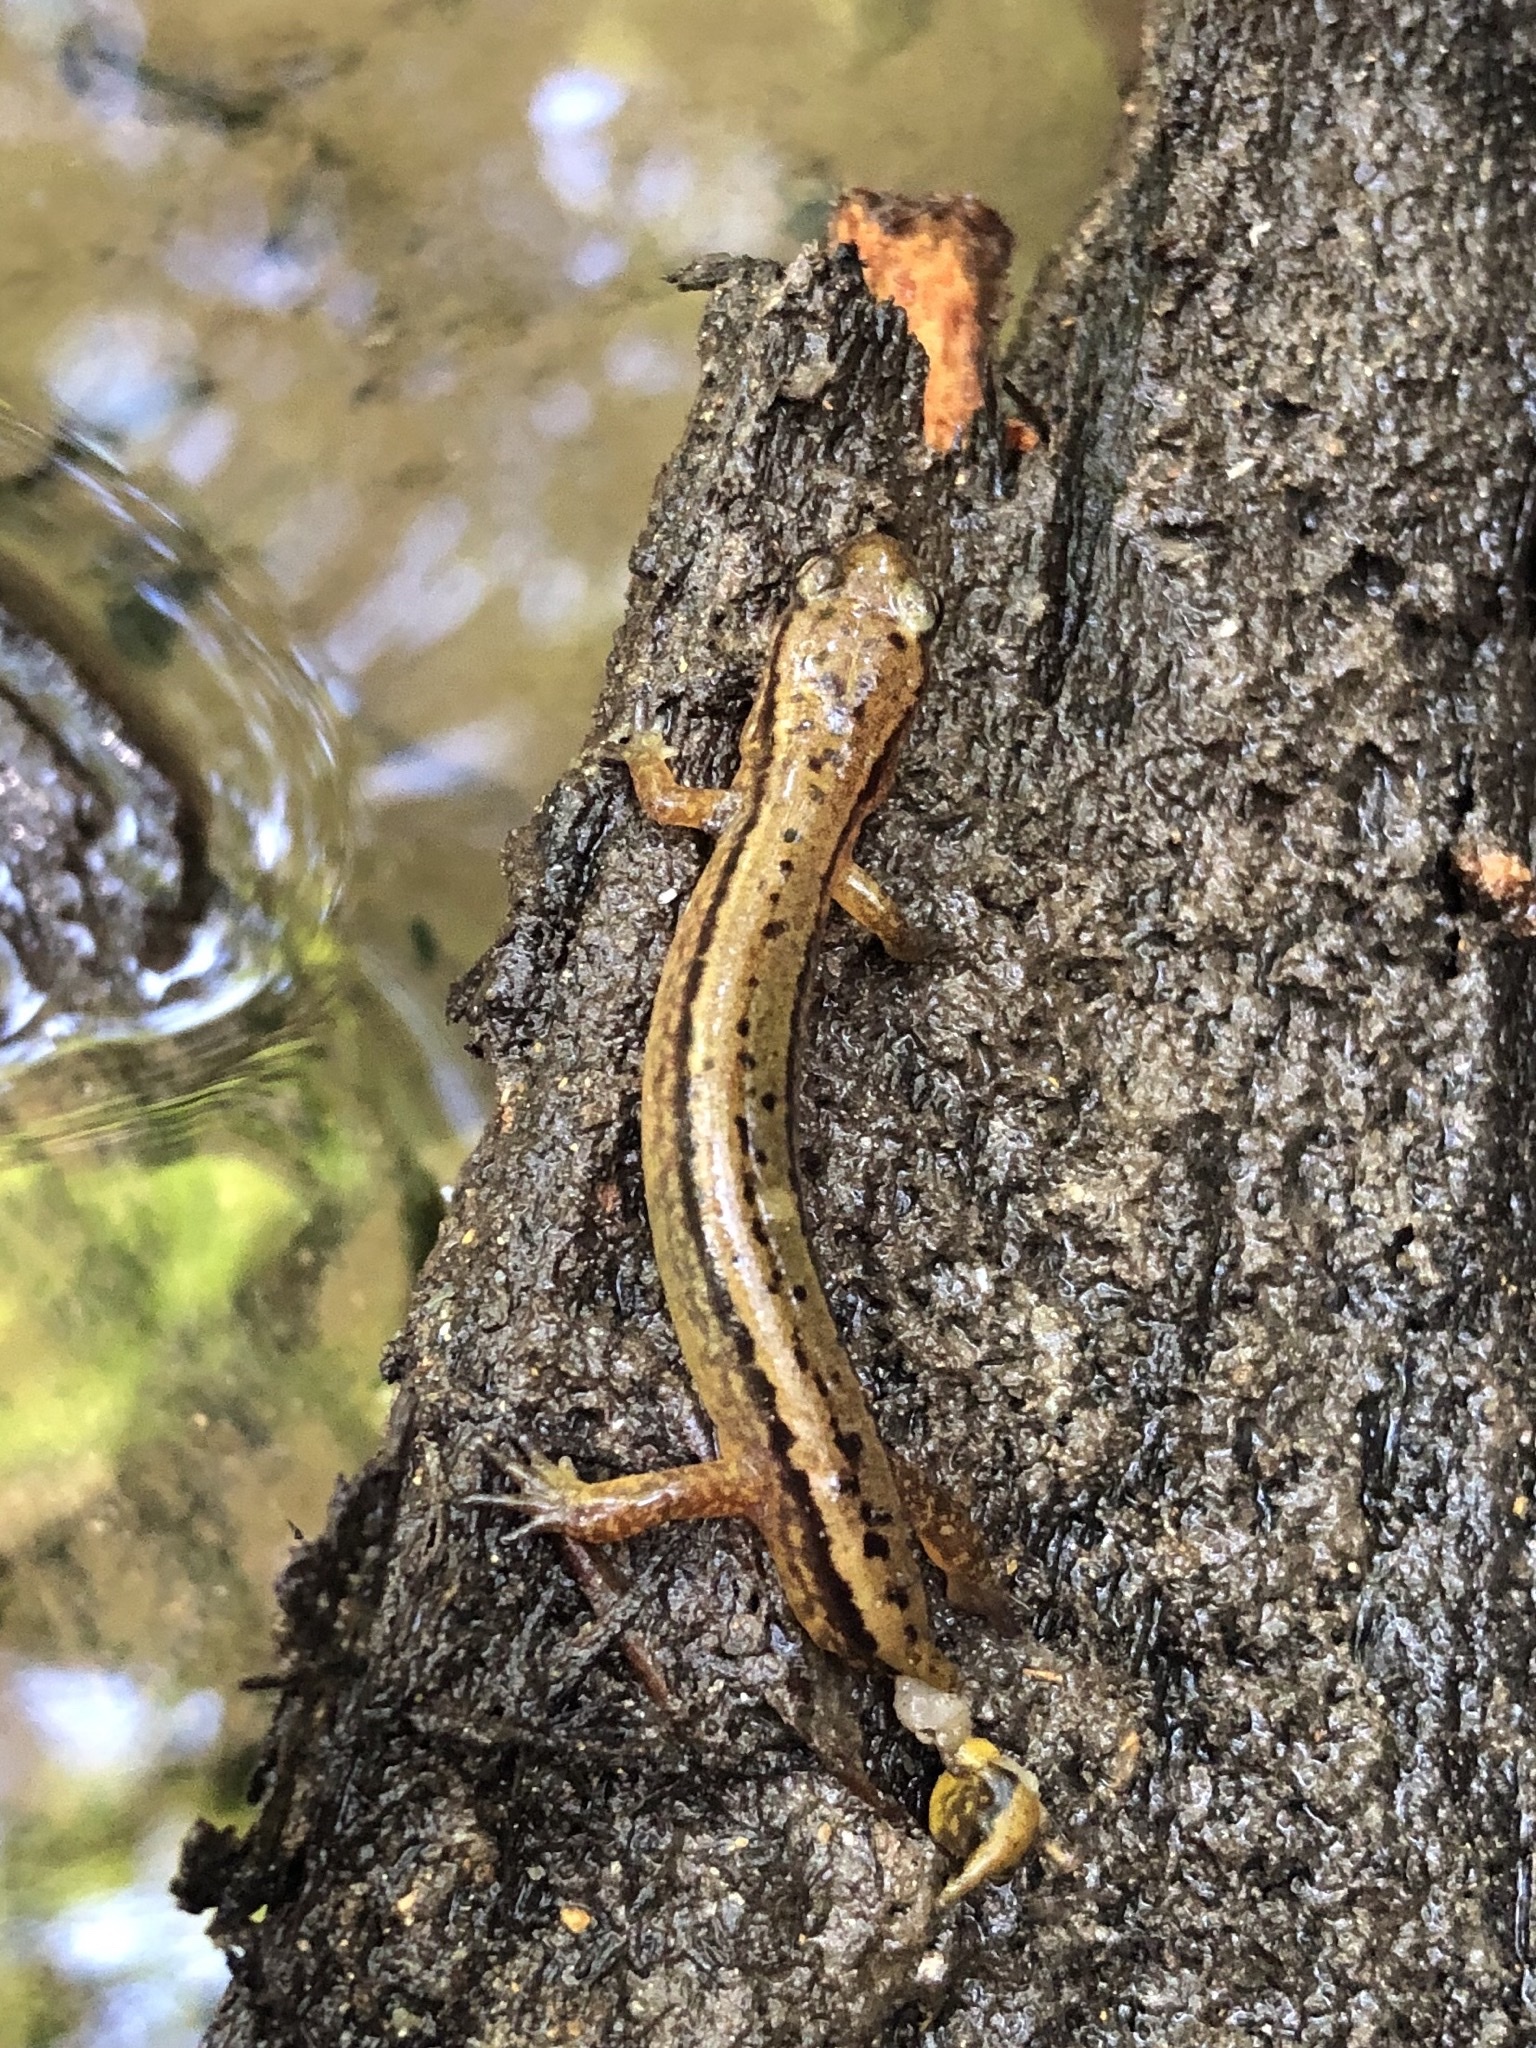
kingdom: Animalia
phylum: Chordata
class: Amphibia
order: Caudata
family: Plethodontidae
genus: Eurycea
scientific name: Eurycea bislineata
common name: Northern two-lined salamander
